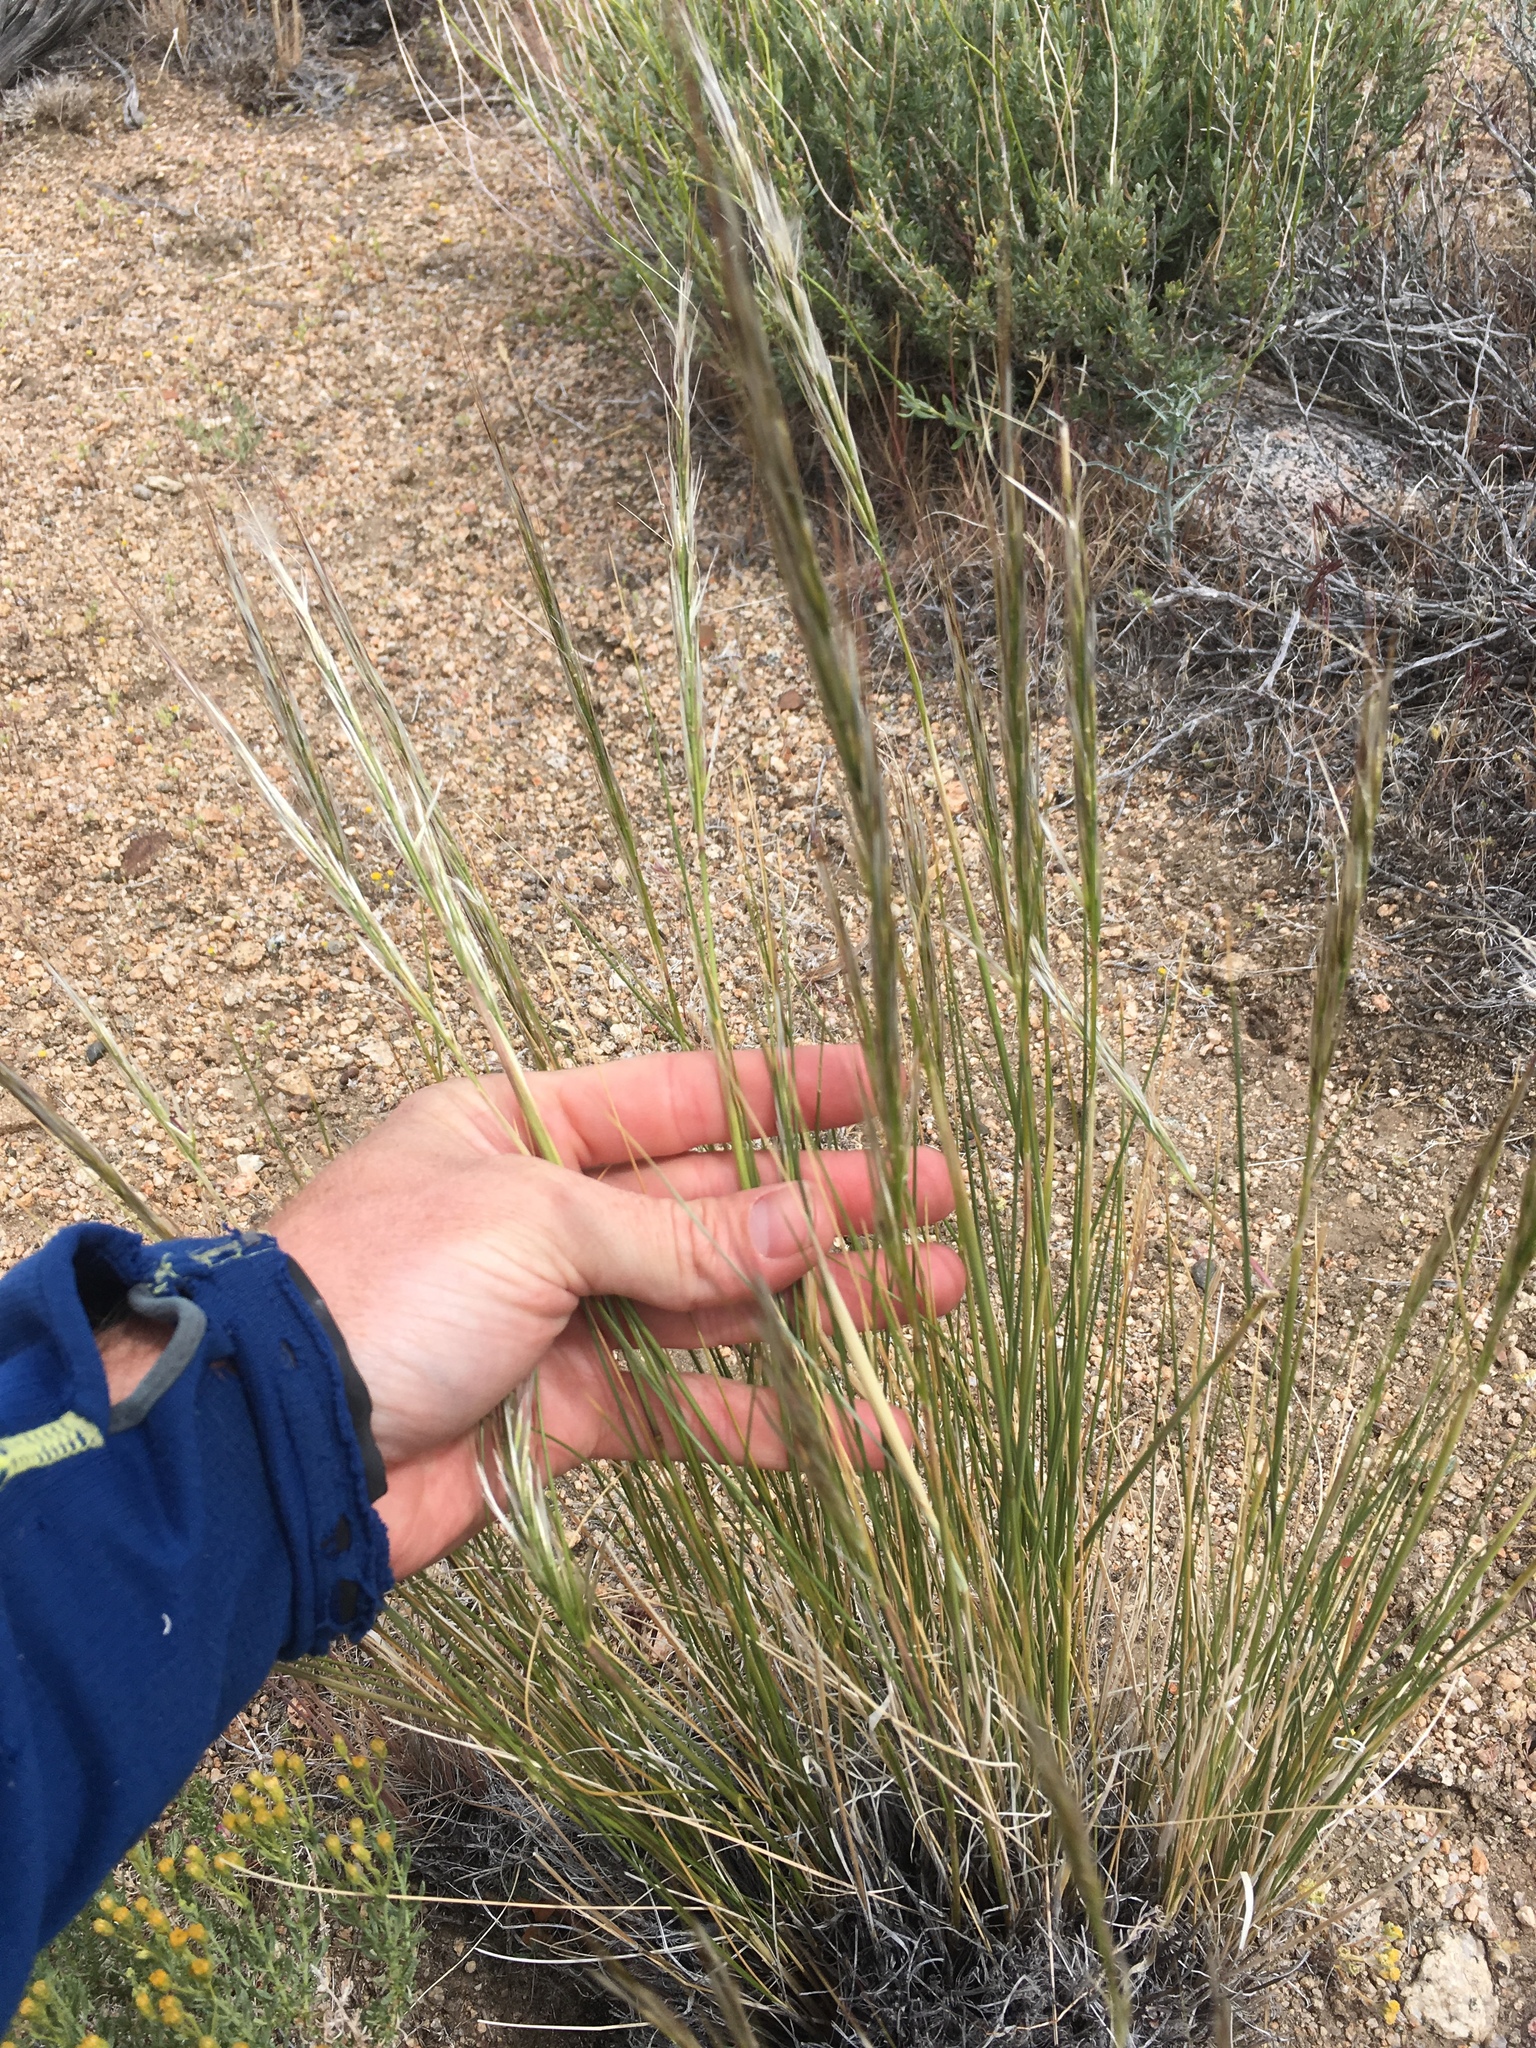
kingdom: Plantae
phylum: Tracheophyta
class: Liliopsida
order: Poales
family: Poaceae
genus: Pappostipa
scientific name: Pappostipa speciosa
